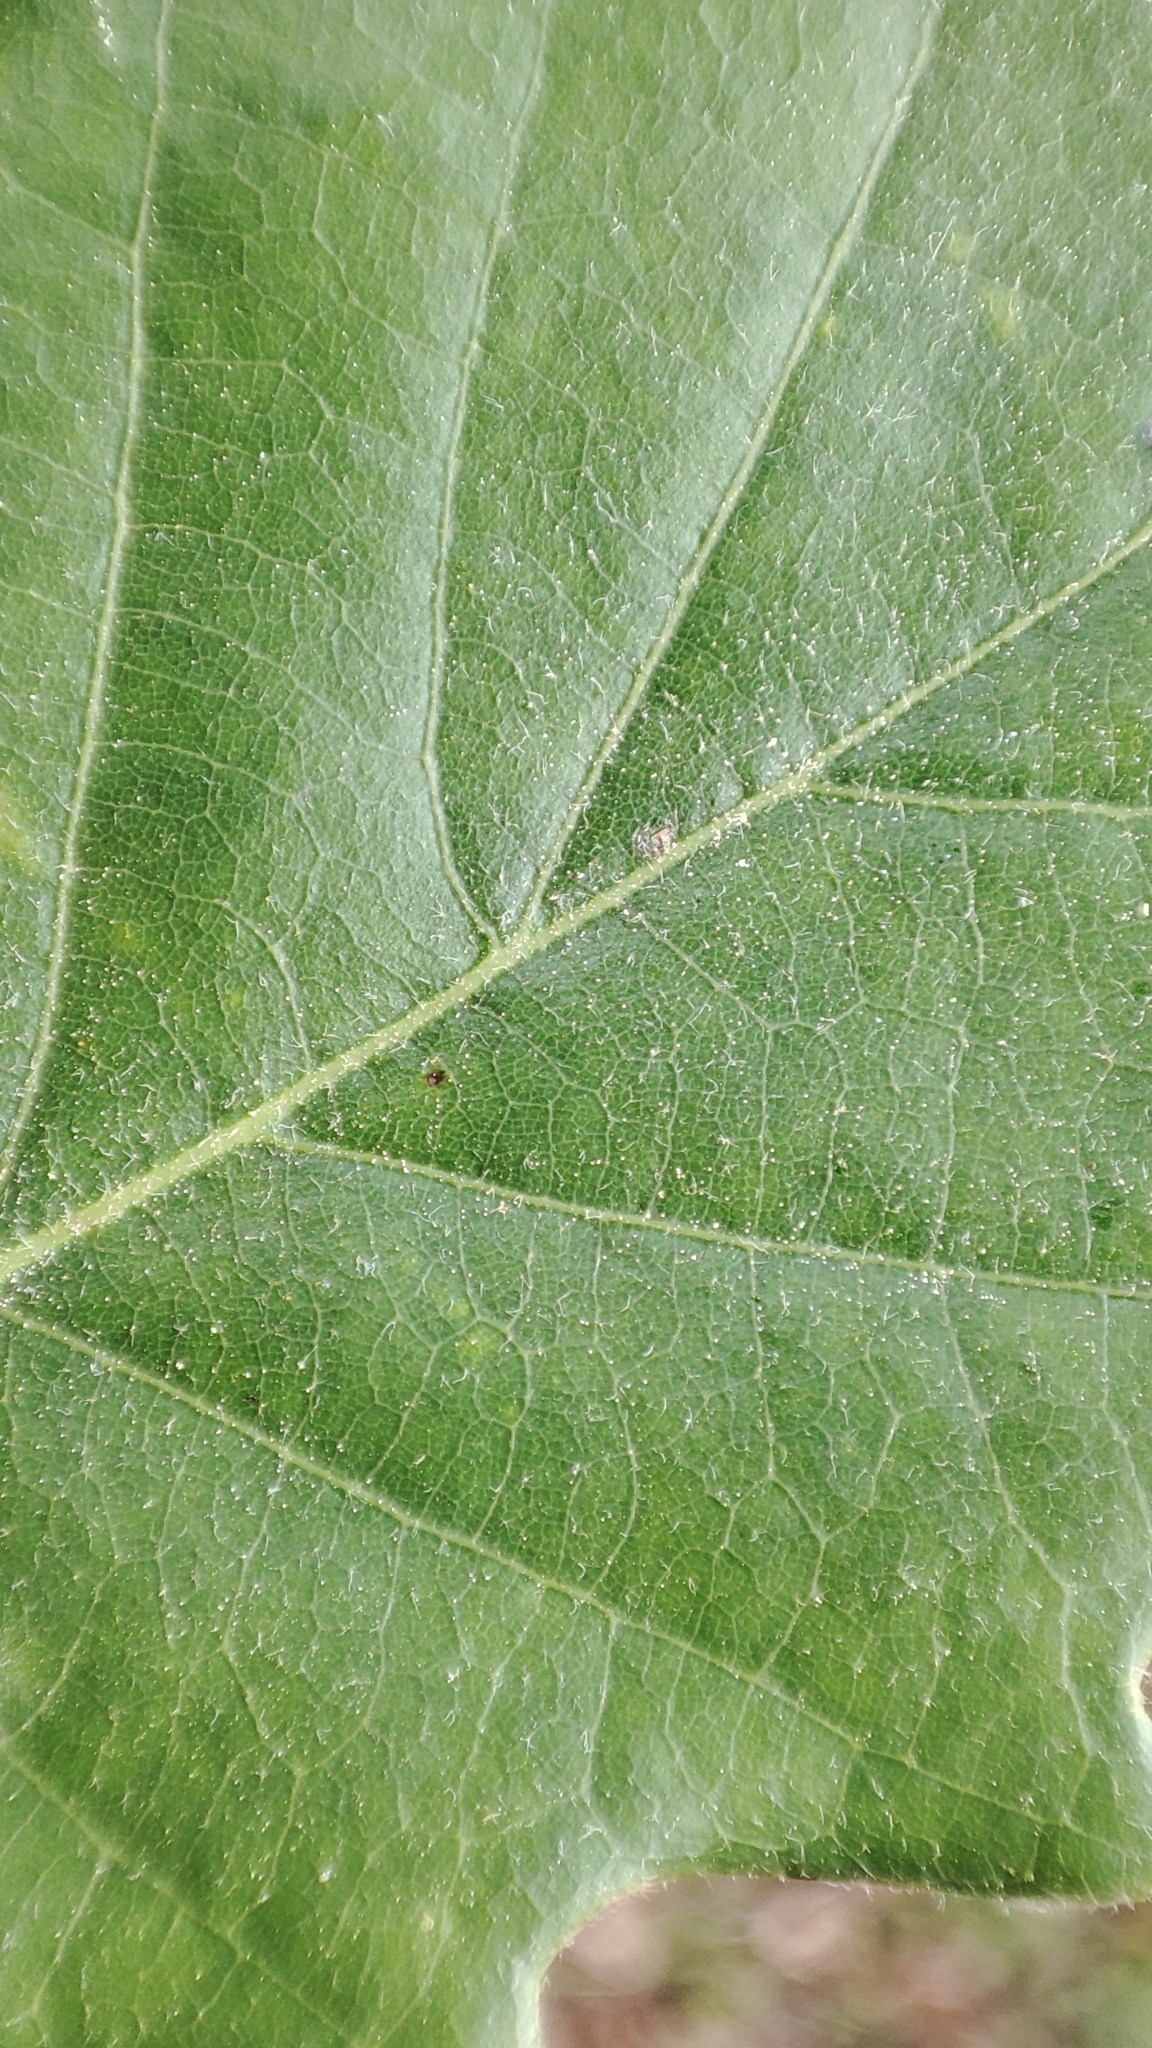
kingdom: Plantae
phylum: Tracheophyta
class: Magnoliopsida
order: Fagales
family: Fagaceae
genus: Quercus
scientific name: Quercus cerrioides
